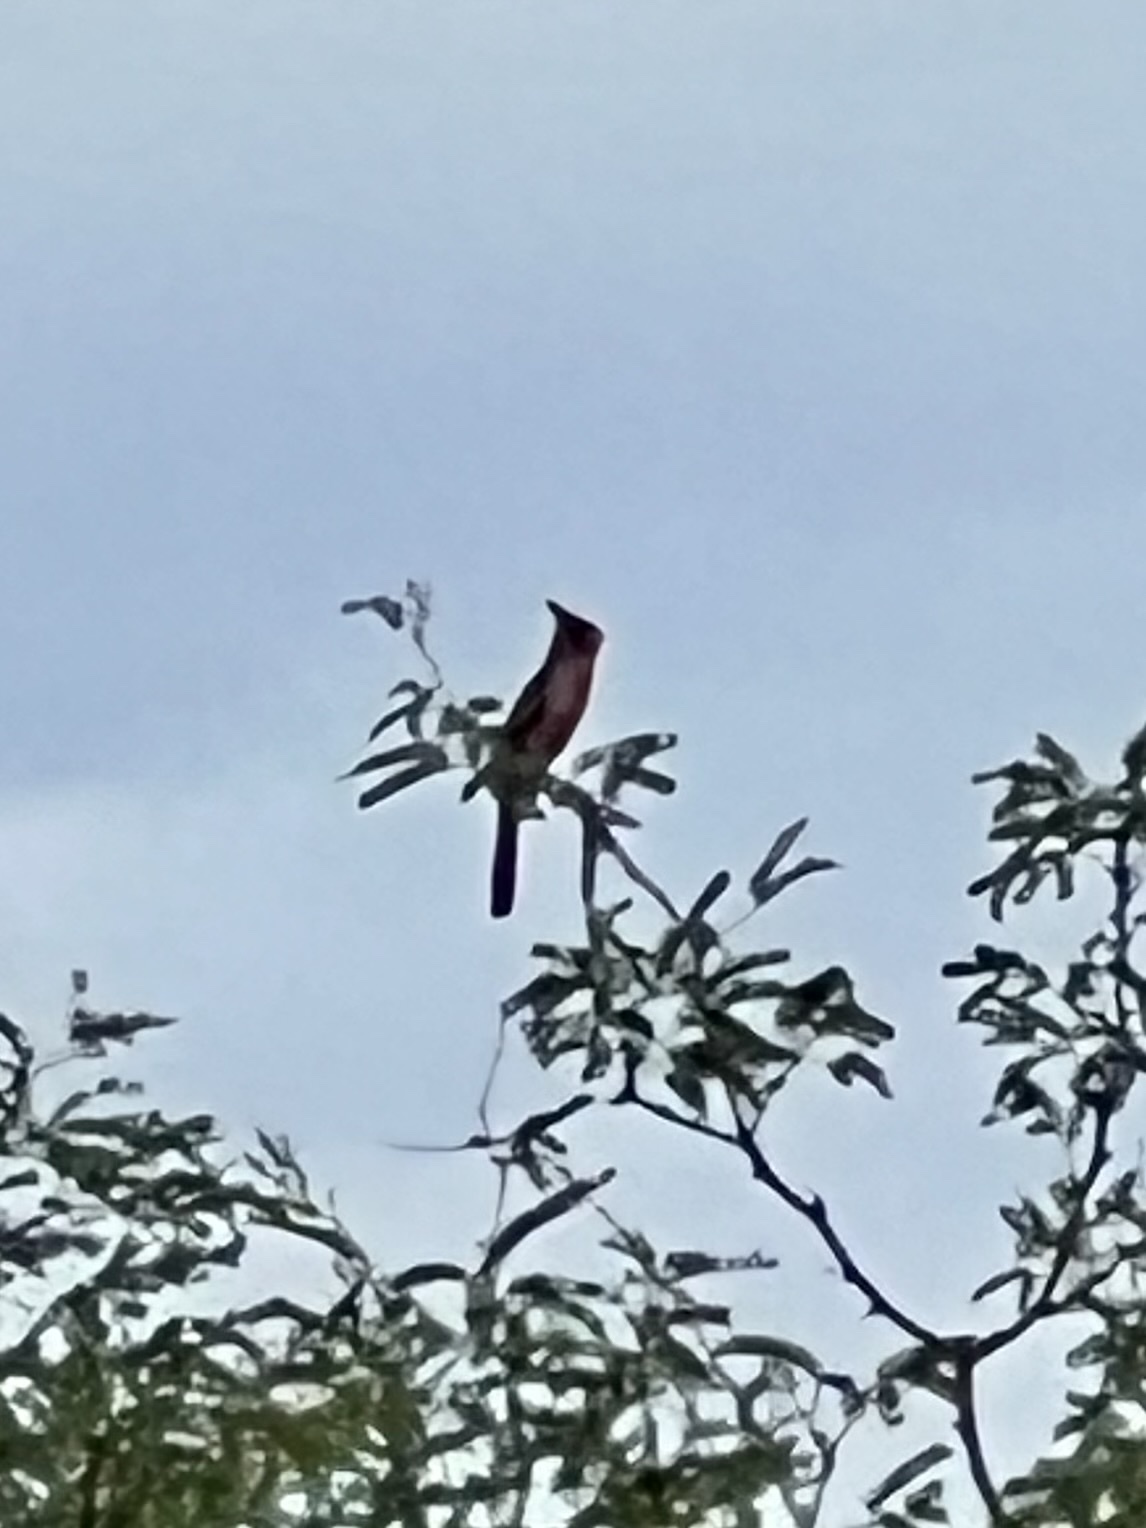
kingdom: Animalia
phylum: Chordata
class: Aves
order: Passeriformes
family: Cardinalidae
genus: Cardinalis
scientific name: Cardinalis sinuatus
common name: Pyrrhuloxia
